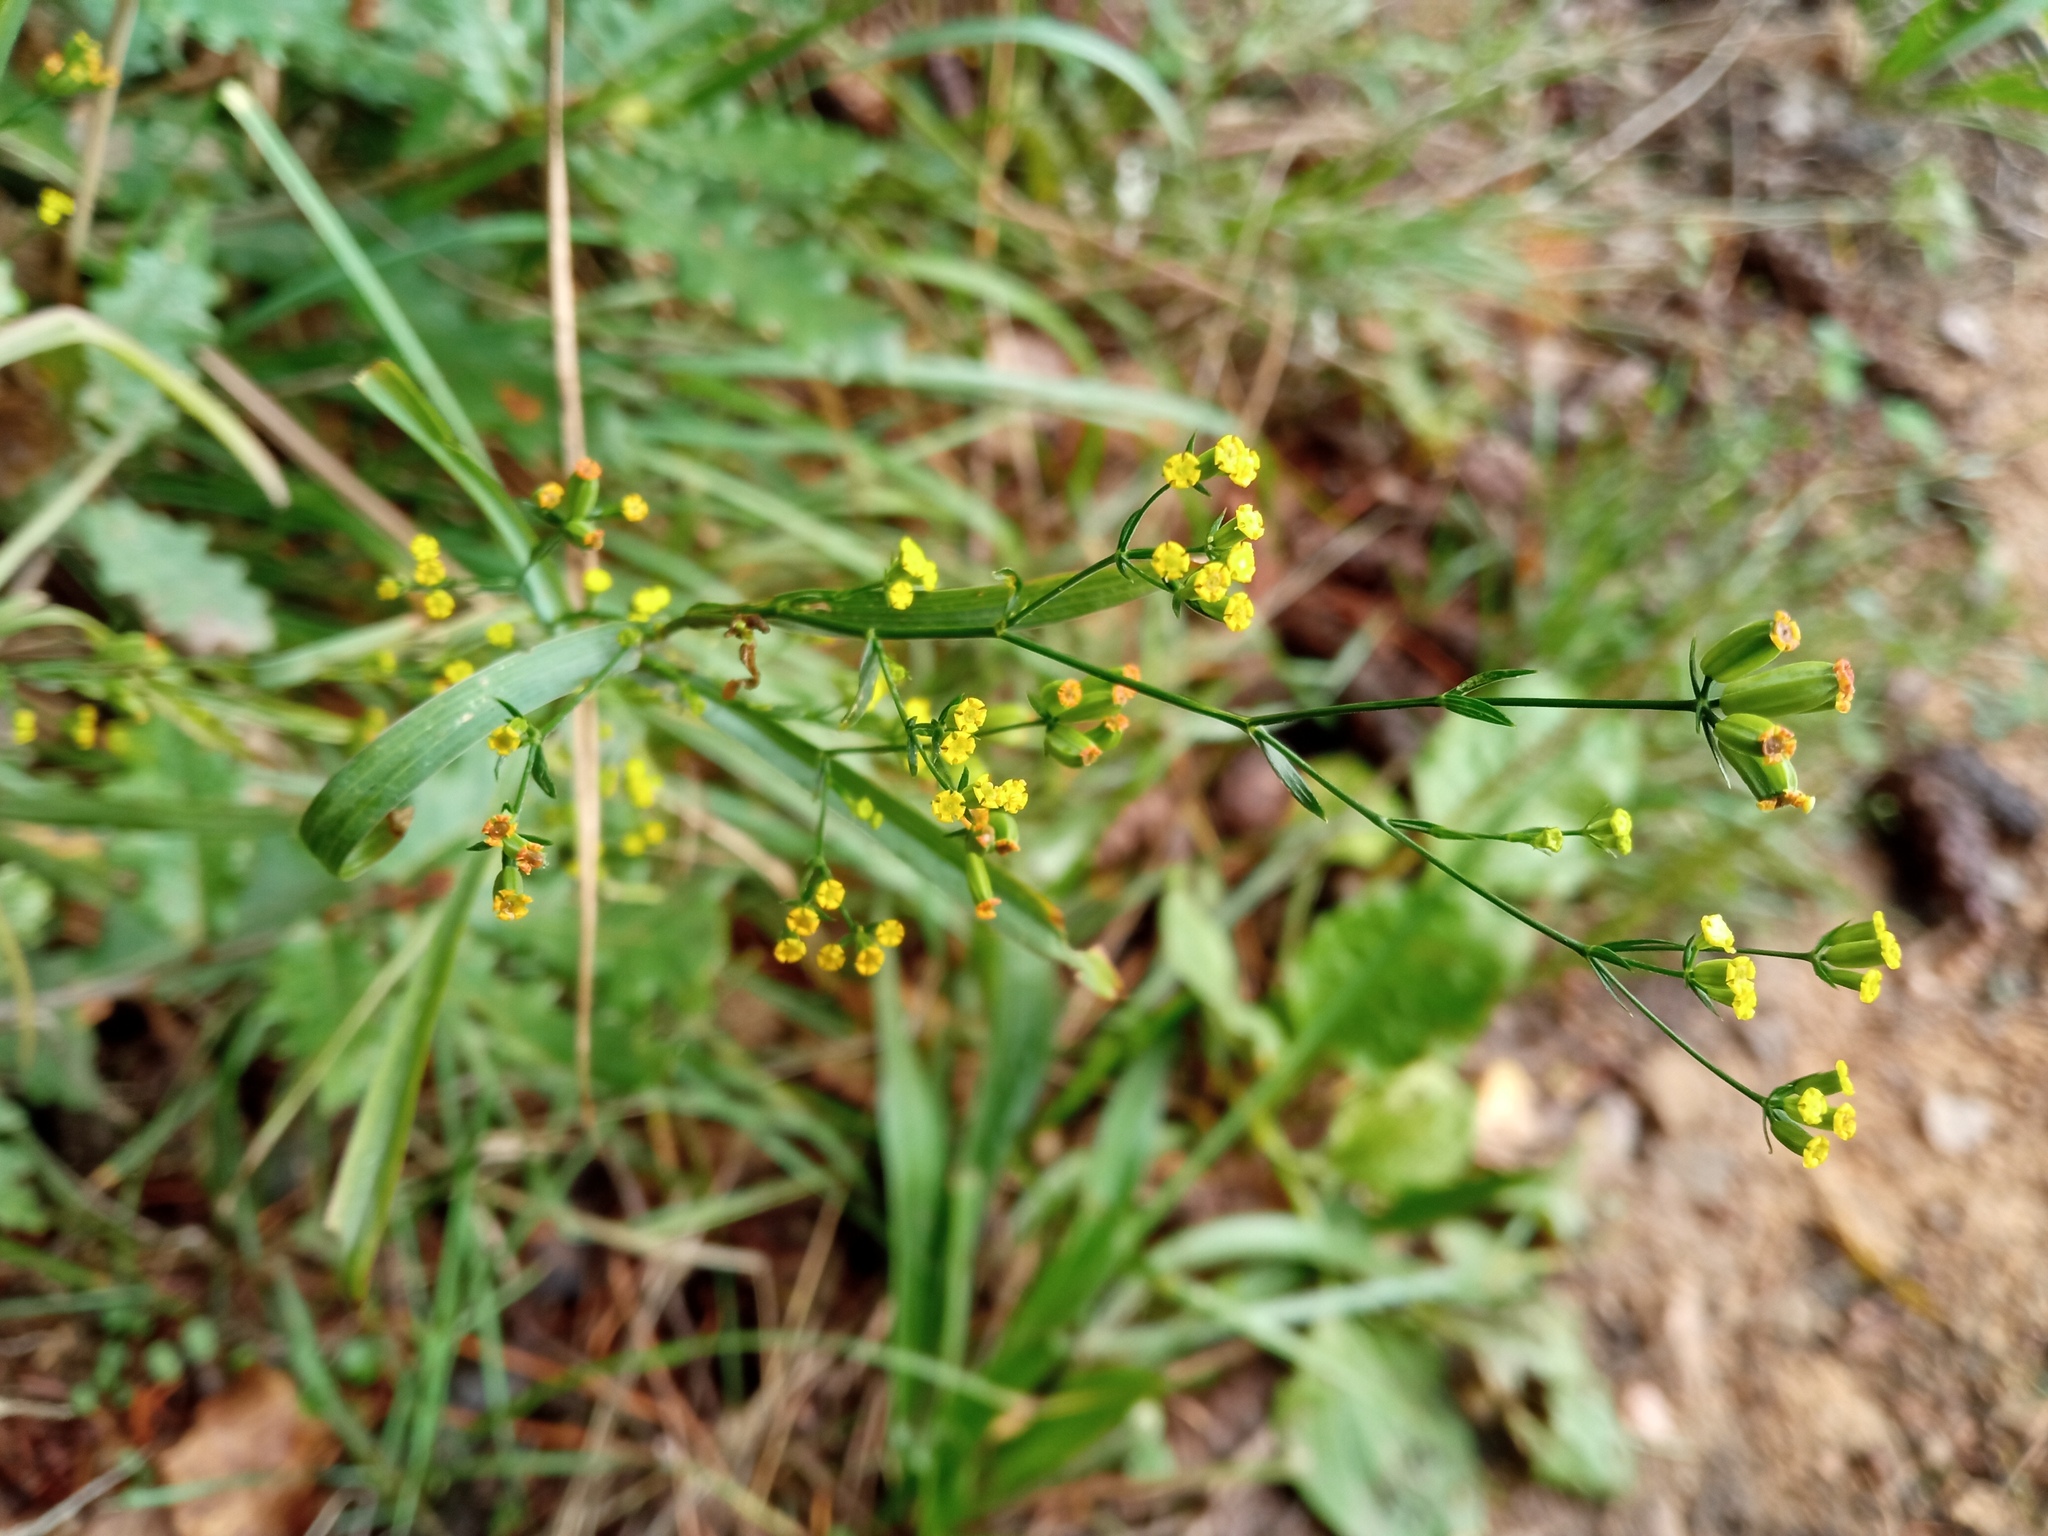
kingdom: Plantae
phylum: Tracheophyta
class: Magnoliopsida
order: Apiales
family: Apiaceae
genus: Bupleurum
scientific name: Bupleurum praealtum
